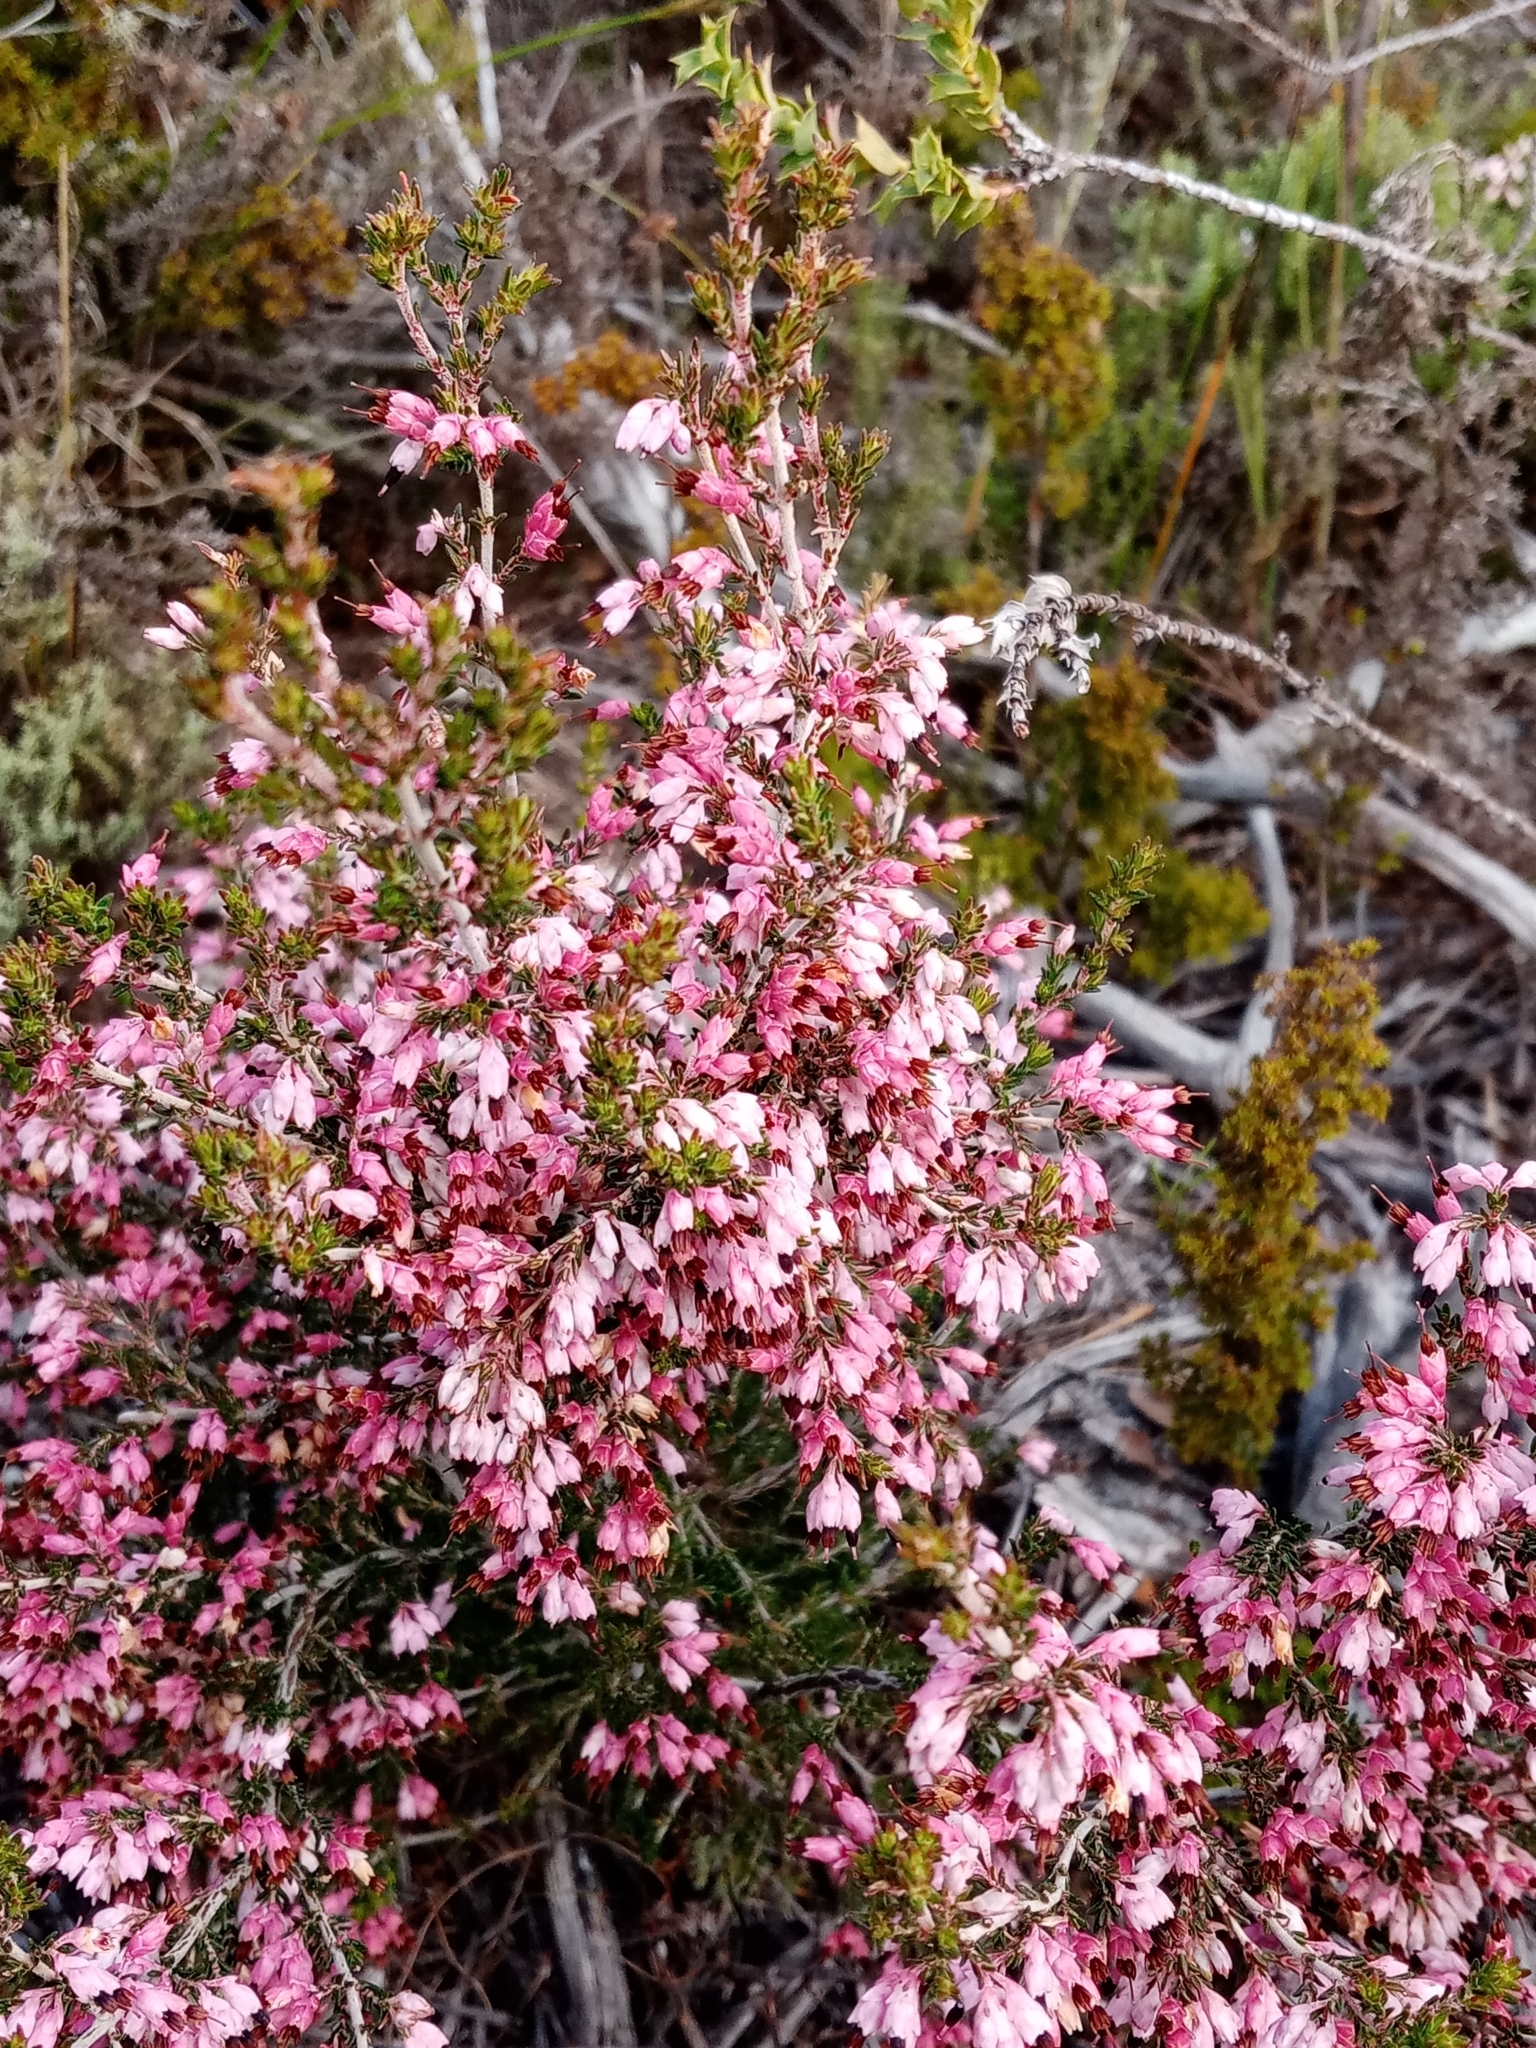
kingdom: Plantae
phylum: Tracheophyta
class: Magnoliopsida
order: Ericales
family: Ericaceae
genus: Erica
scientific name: Erica placentiflora
